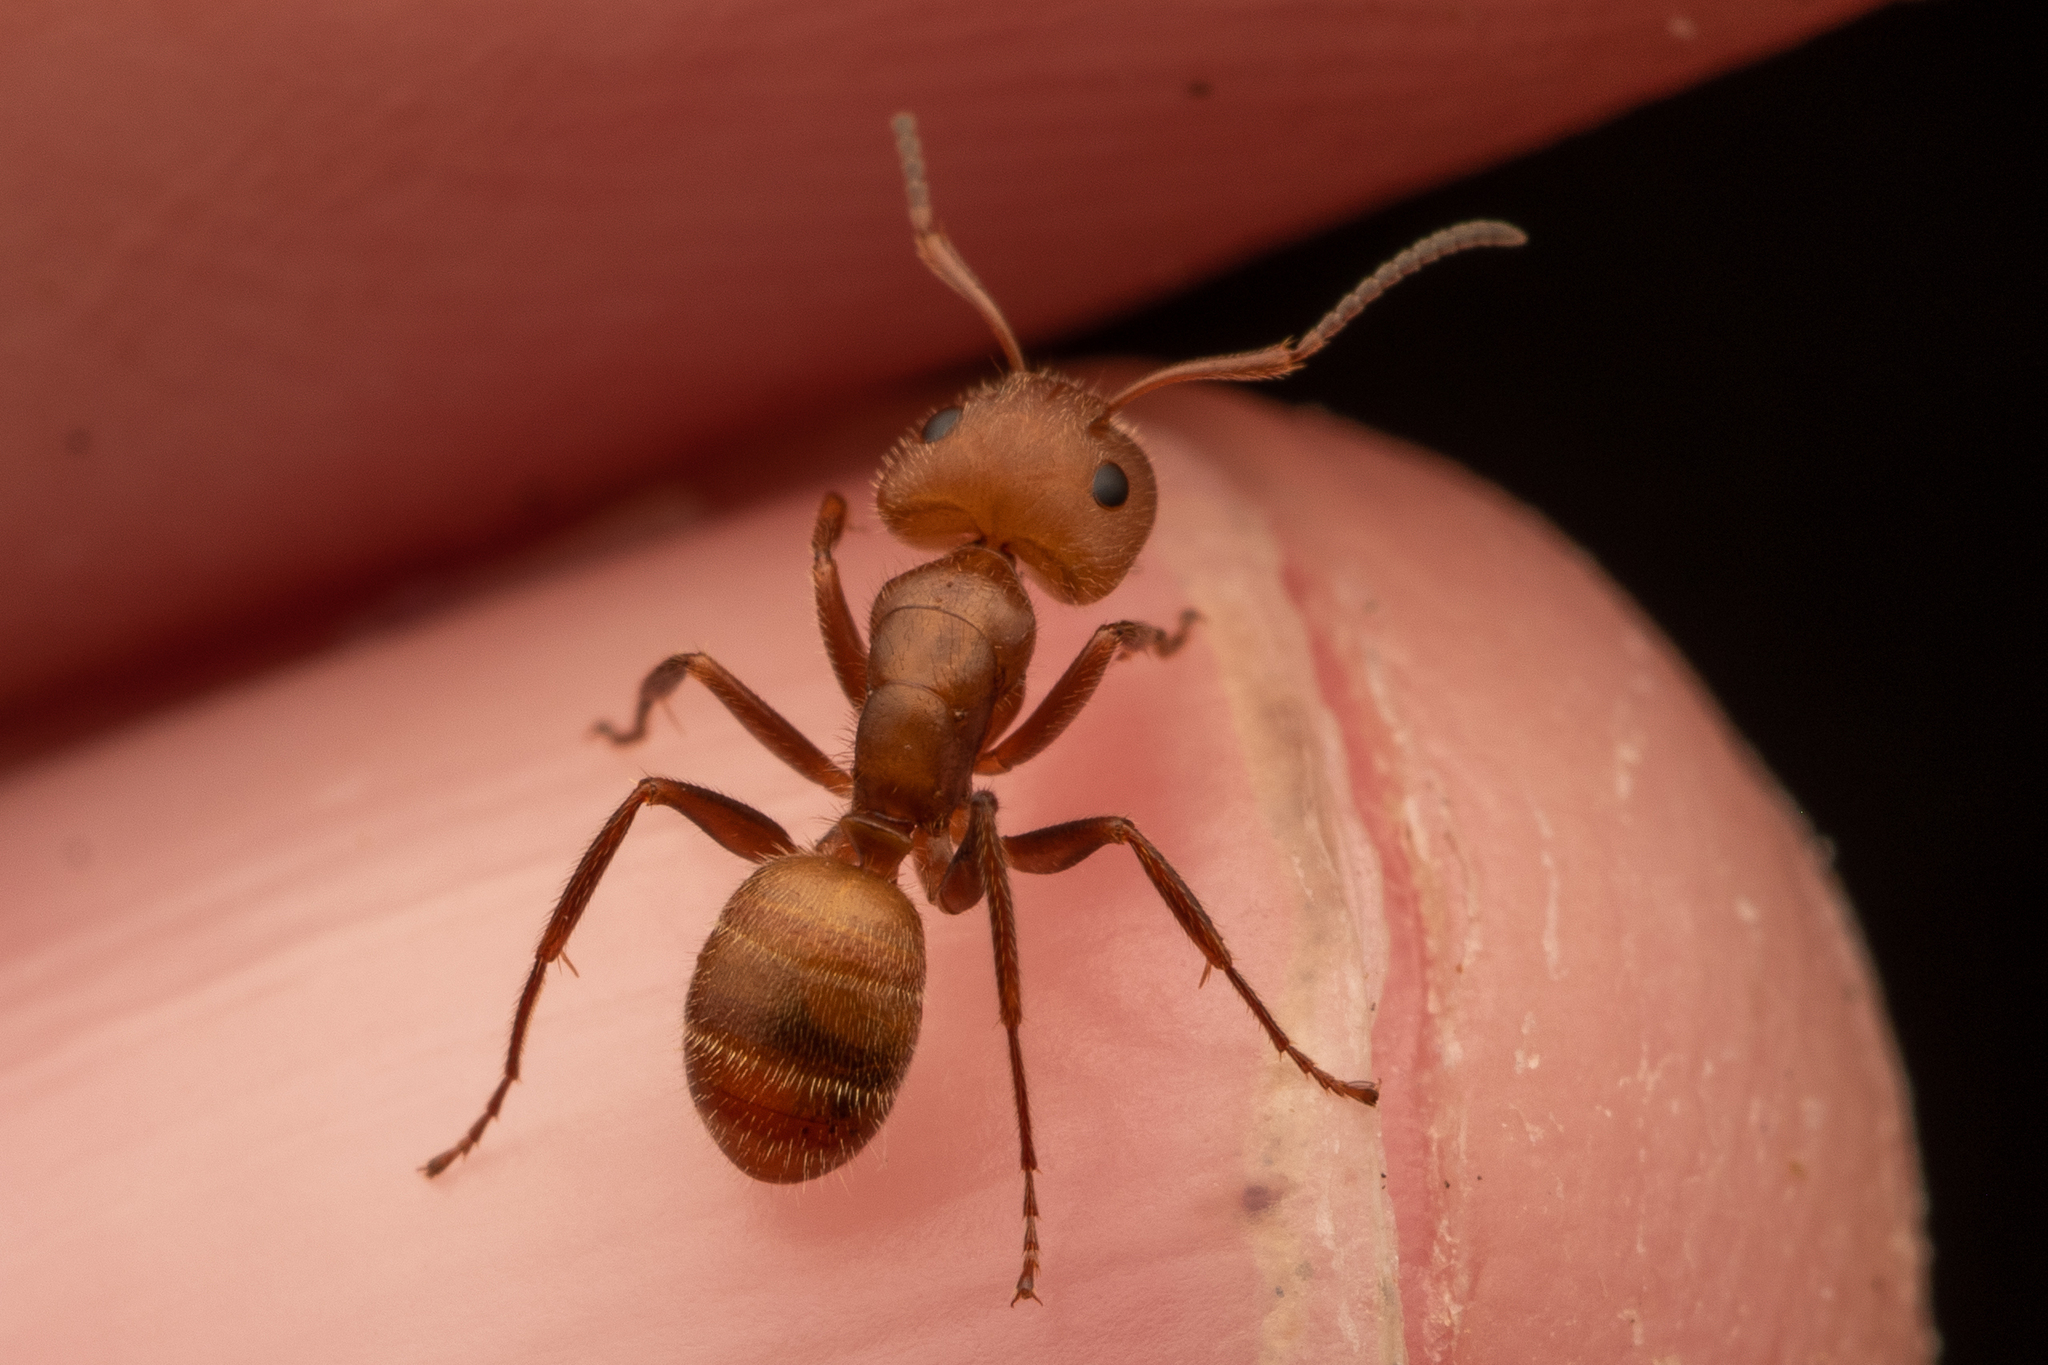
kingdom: Animalia
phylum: Arthropoda
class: Insecta
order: Hymenoptera
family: Formicidae
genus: Camponotus
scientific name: Camponotus rectangularis
